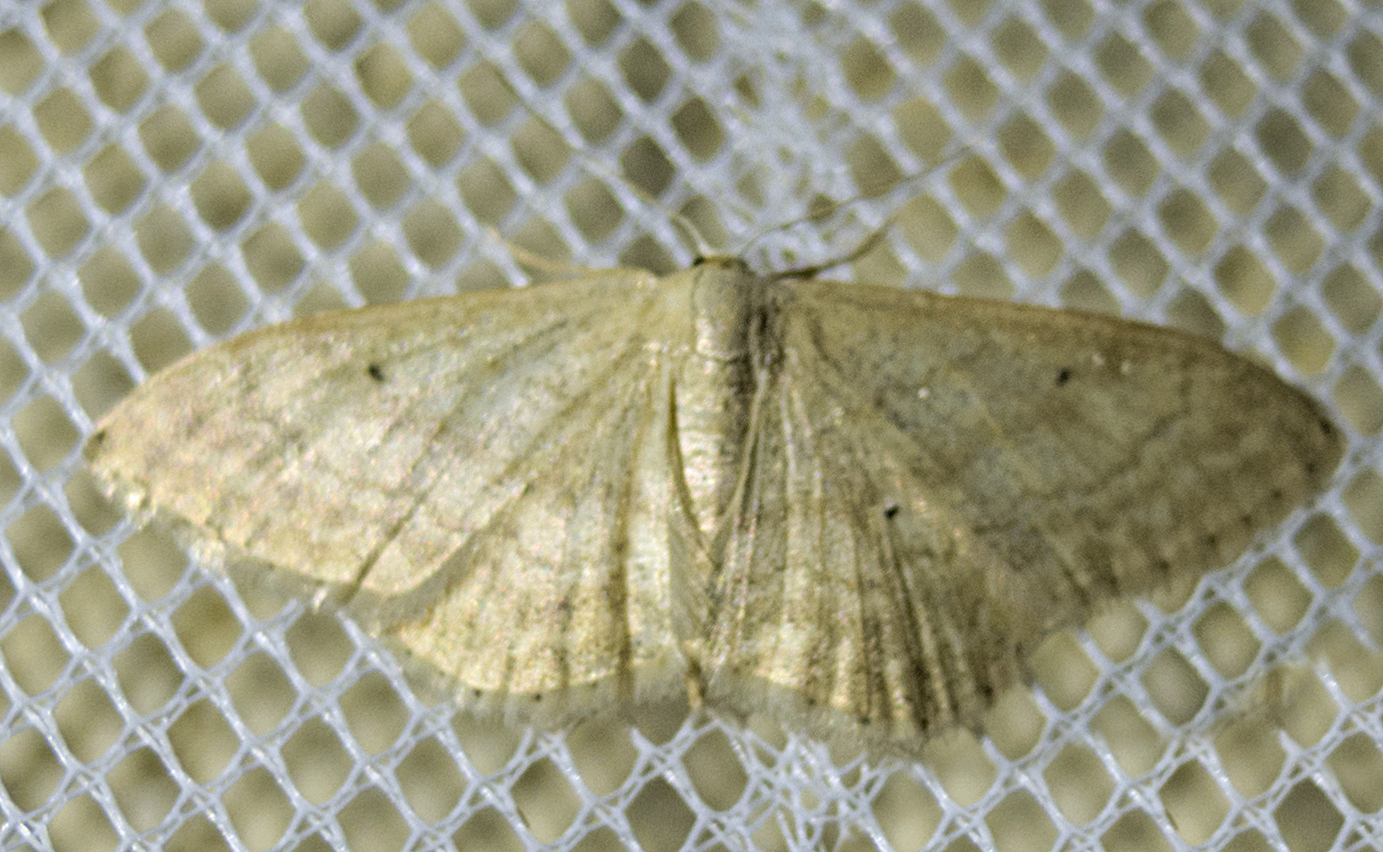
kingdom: Animalia
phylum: Arthropoda
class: Insecta
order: Lepidoptera
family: Geometridae
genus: Idaea
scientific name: Idaea maritimaria
